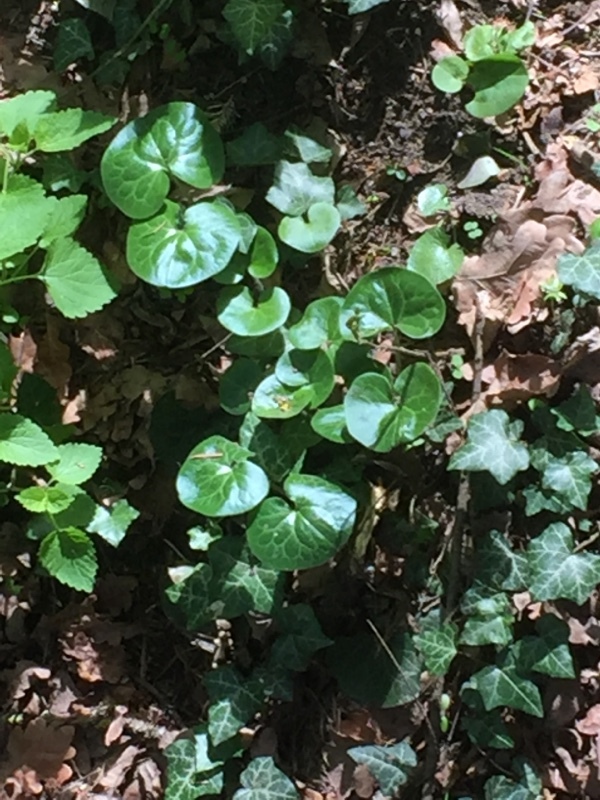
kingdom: Plantae
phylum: Tracheophyta
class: Magnoliopsida
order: Piperales
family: Aristolochiaceae
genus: Asarum
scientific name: Asarum europaeum
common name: Asarabacca
